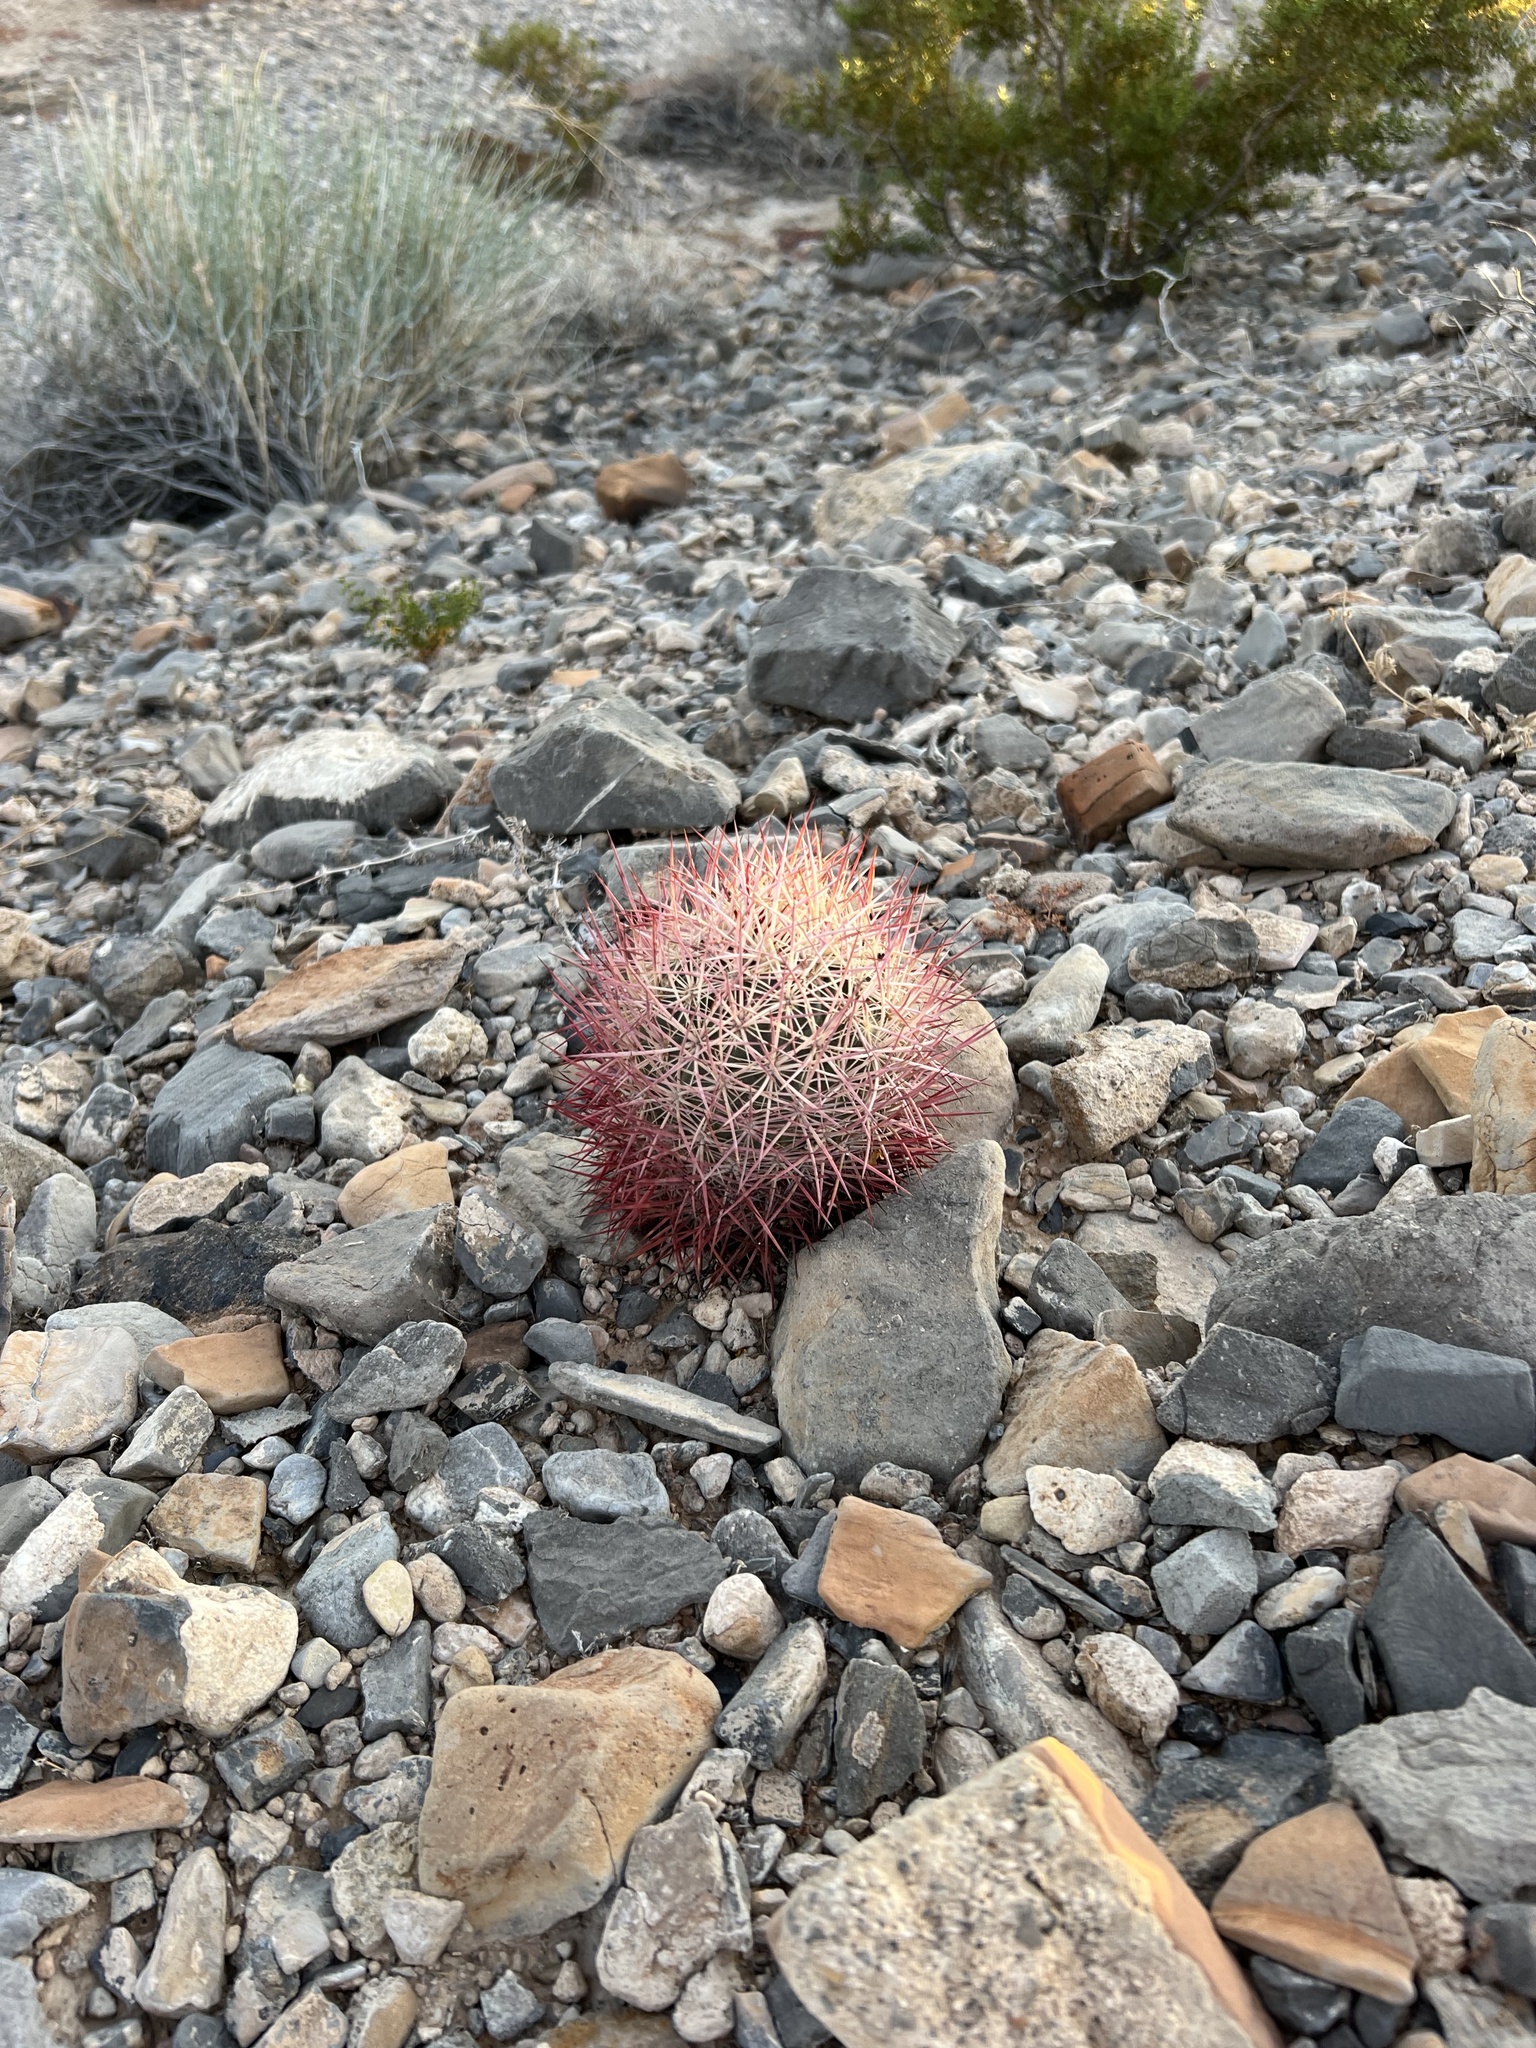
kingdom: Plantae
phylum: Tracheophyta
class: Magnoliopsida
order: Caryophyllales
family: Cactaceae
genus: Sclerocactus
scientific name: Sclerocactus johnsonii
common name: Eight-spine fishhook cactus
